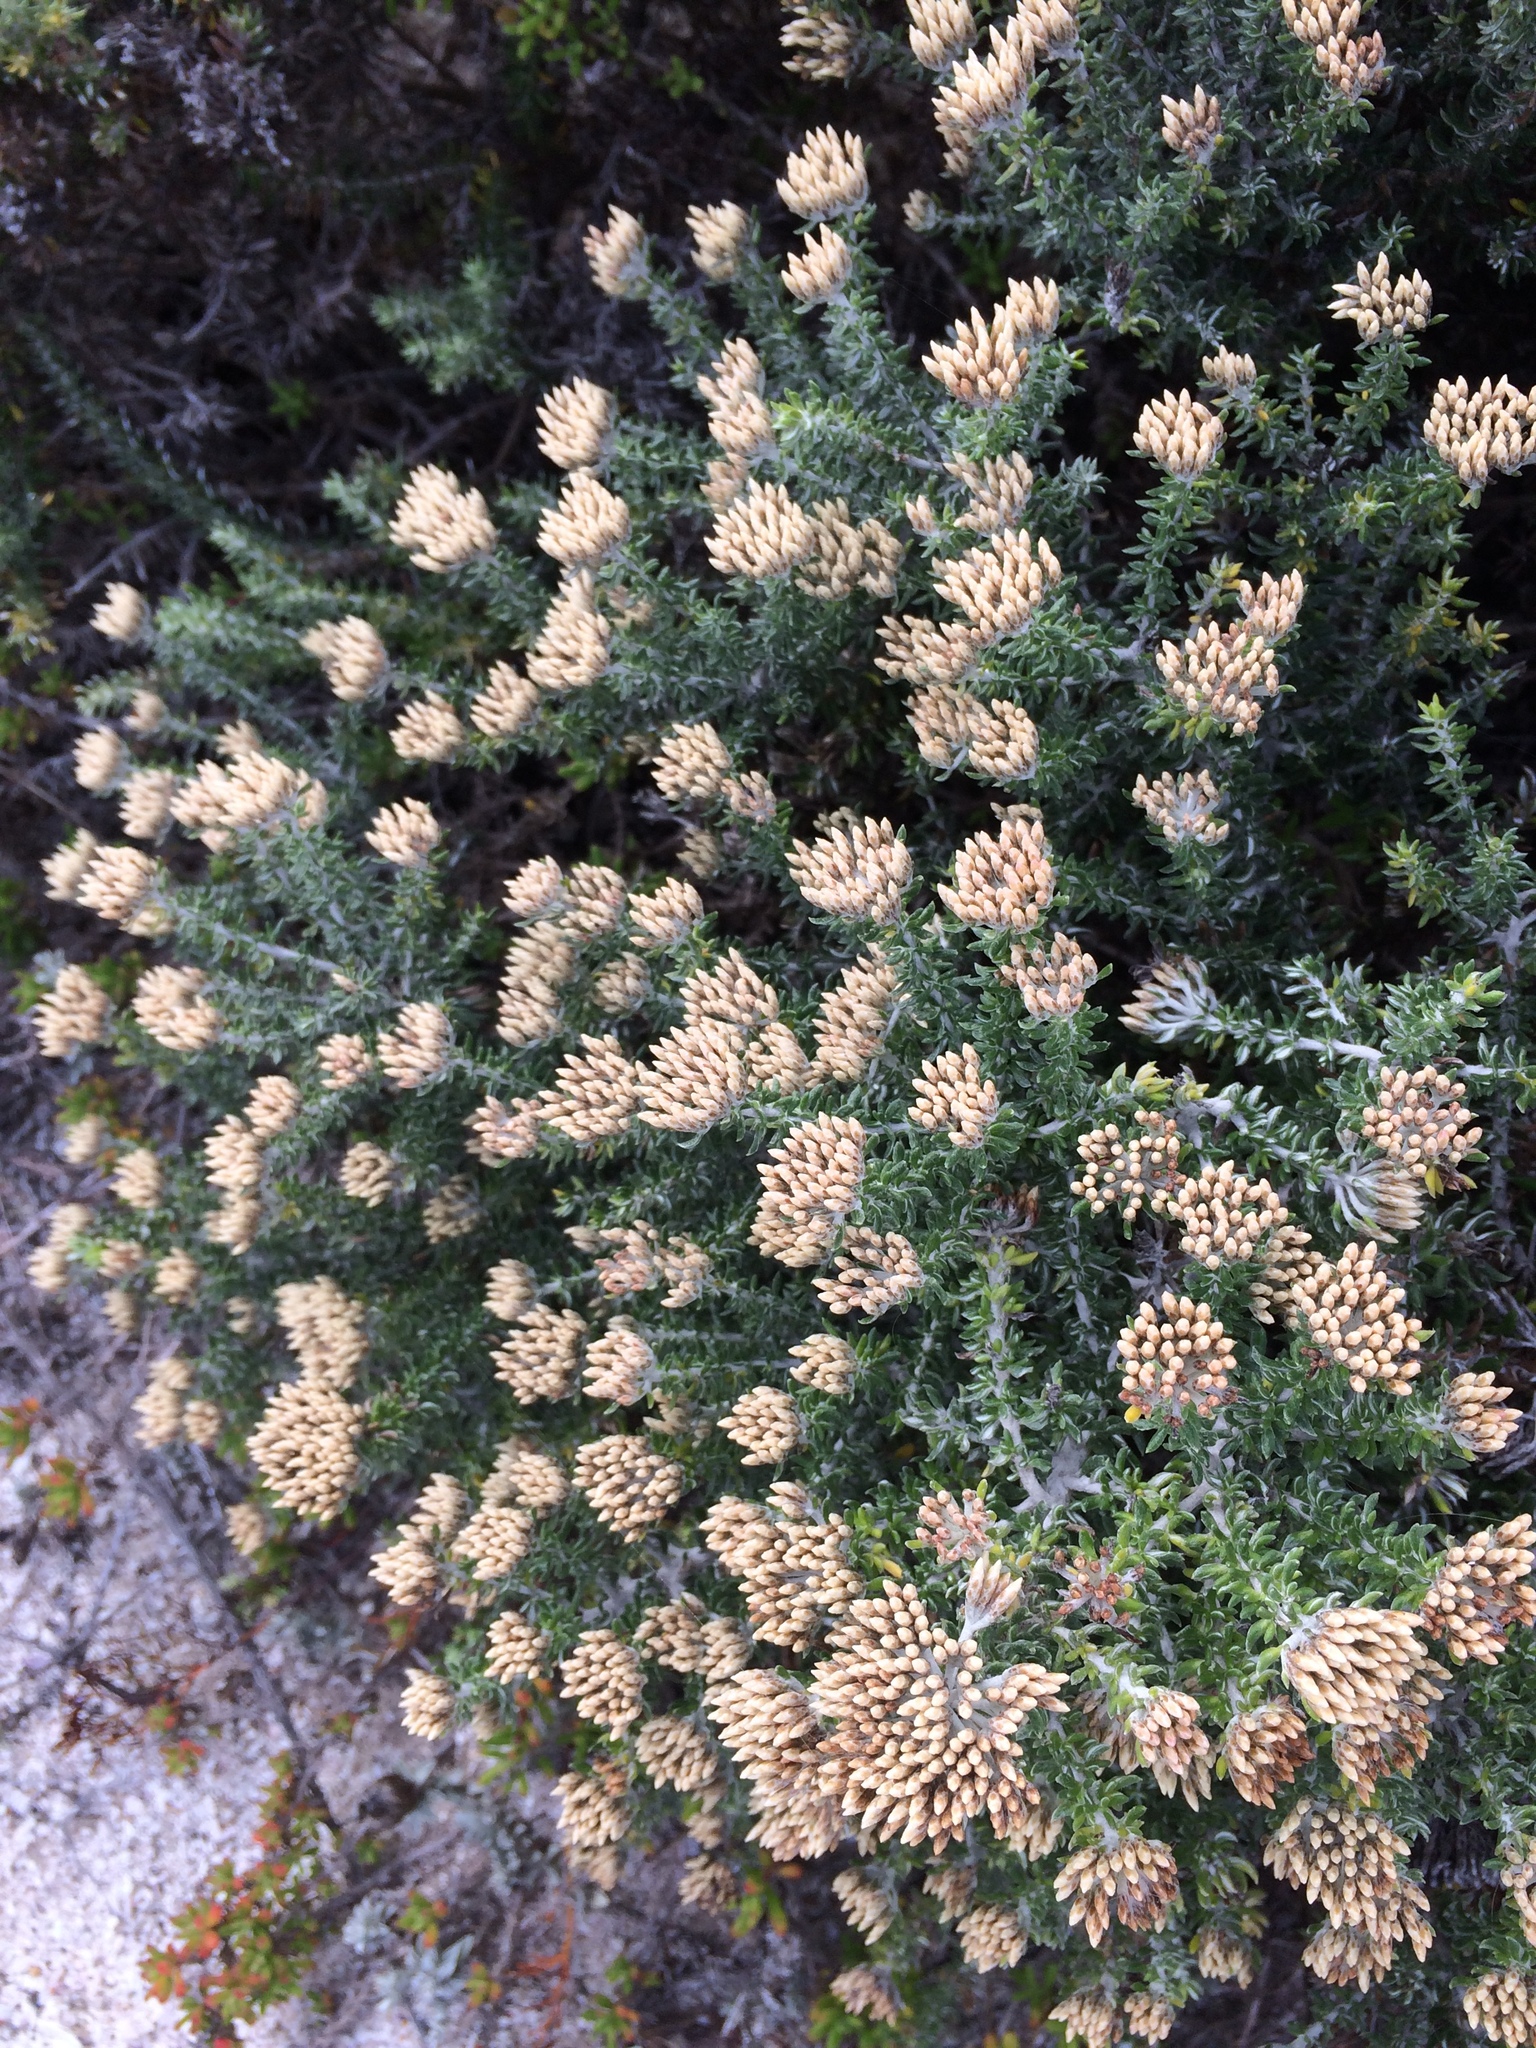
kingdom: Plantae
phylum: Tracheophyta
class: Magnoliopsida
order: Asterales
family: Asteraceae
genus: Metalasia
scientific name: Metalasia densa
